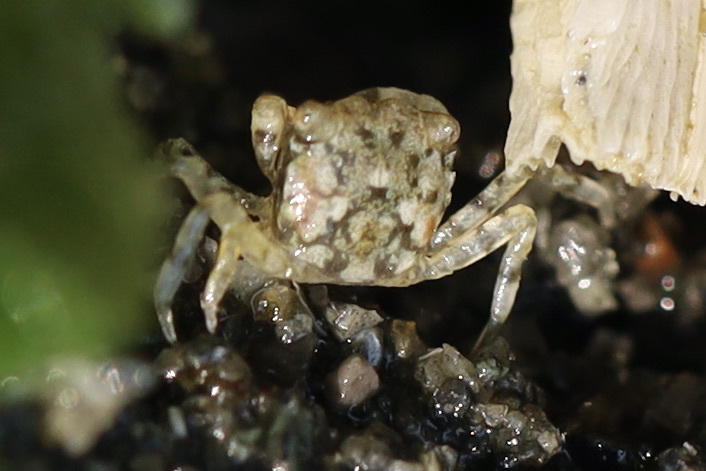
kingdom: Animalia
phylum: Arthropoda
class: Malacostraca
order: Decapoda
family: Varunidae
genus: Hemigrapsus
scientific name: Hemigrapsus oregonensis
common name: Yellow shore crab
